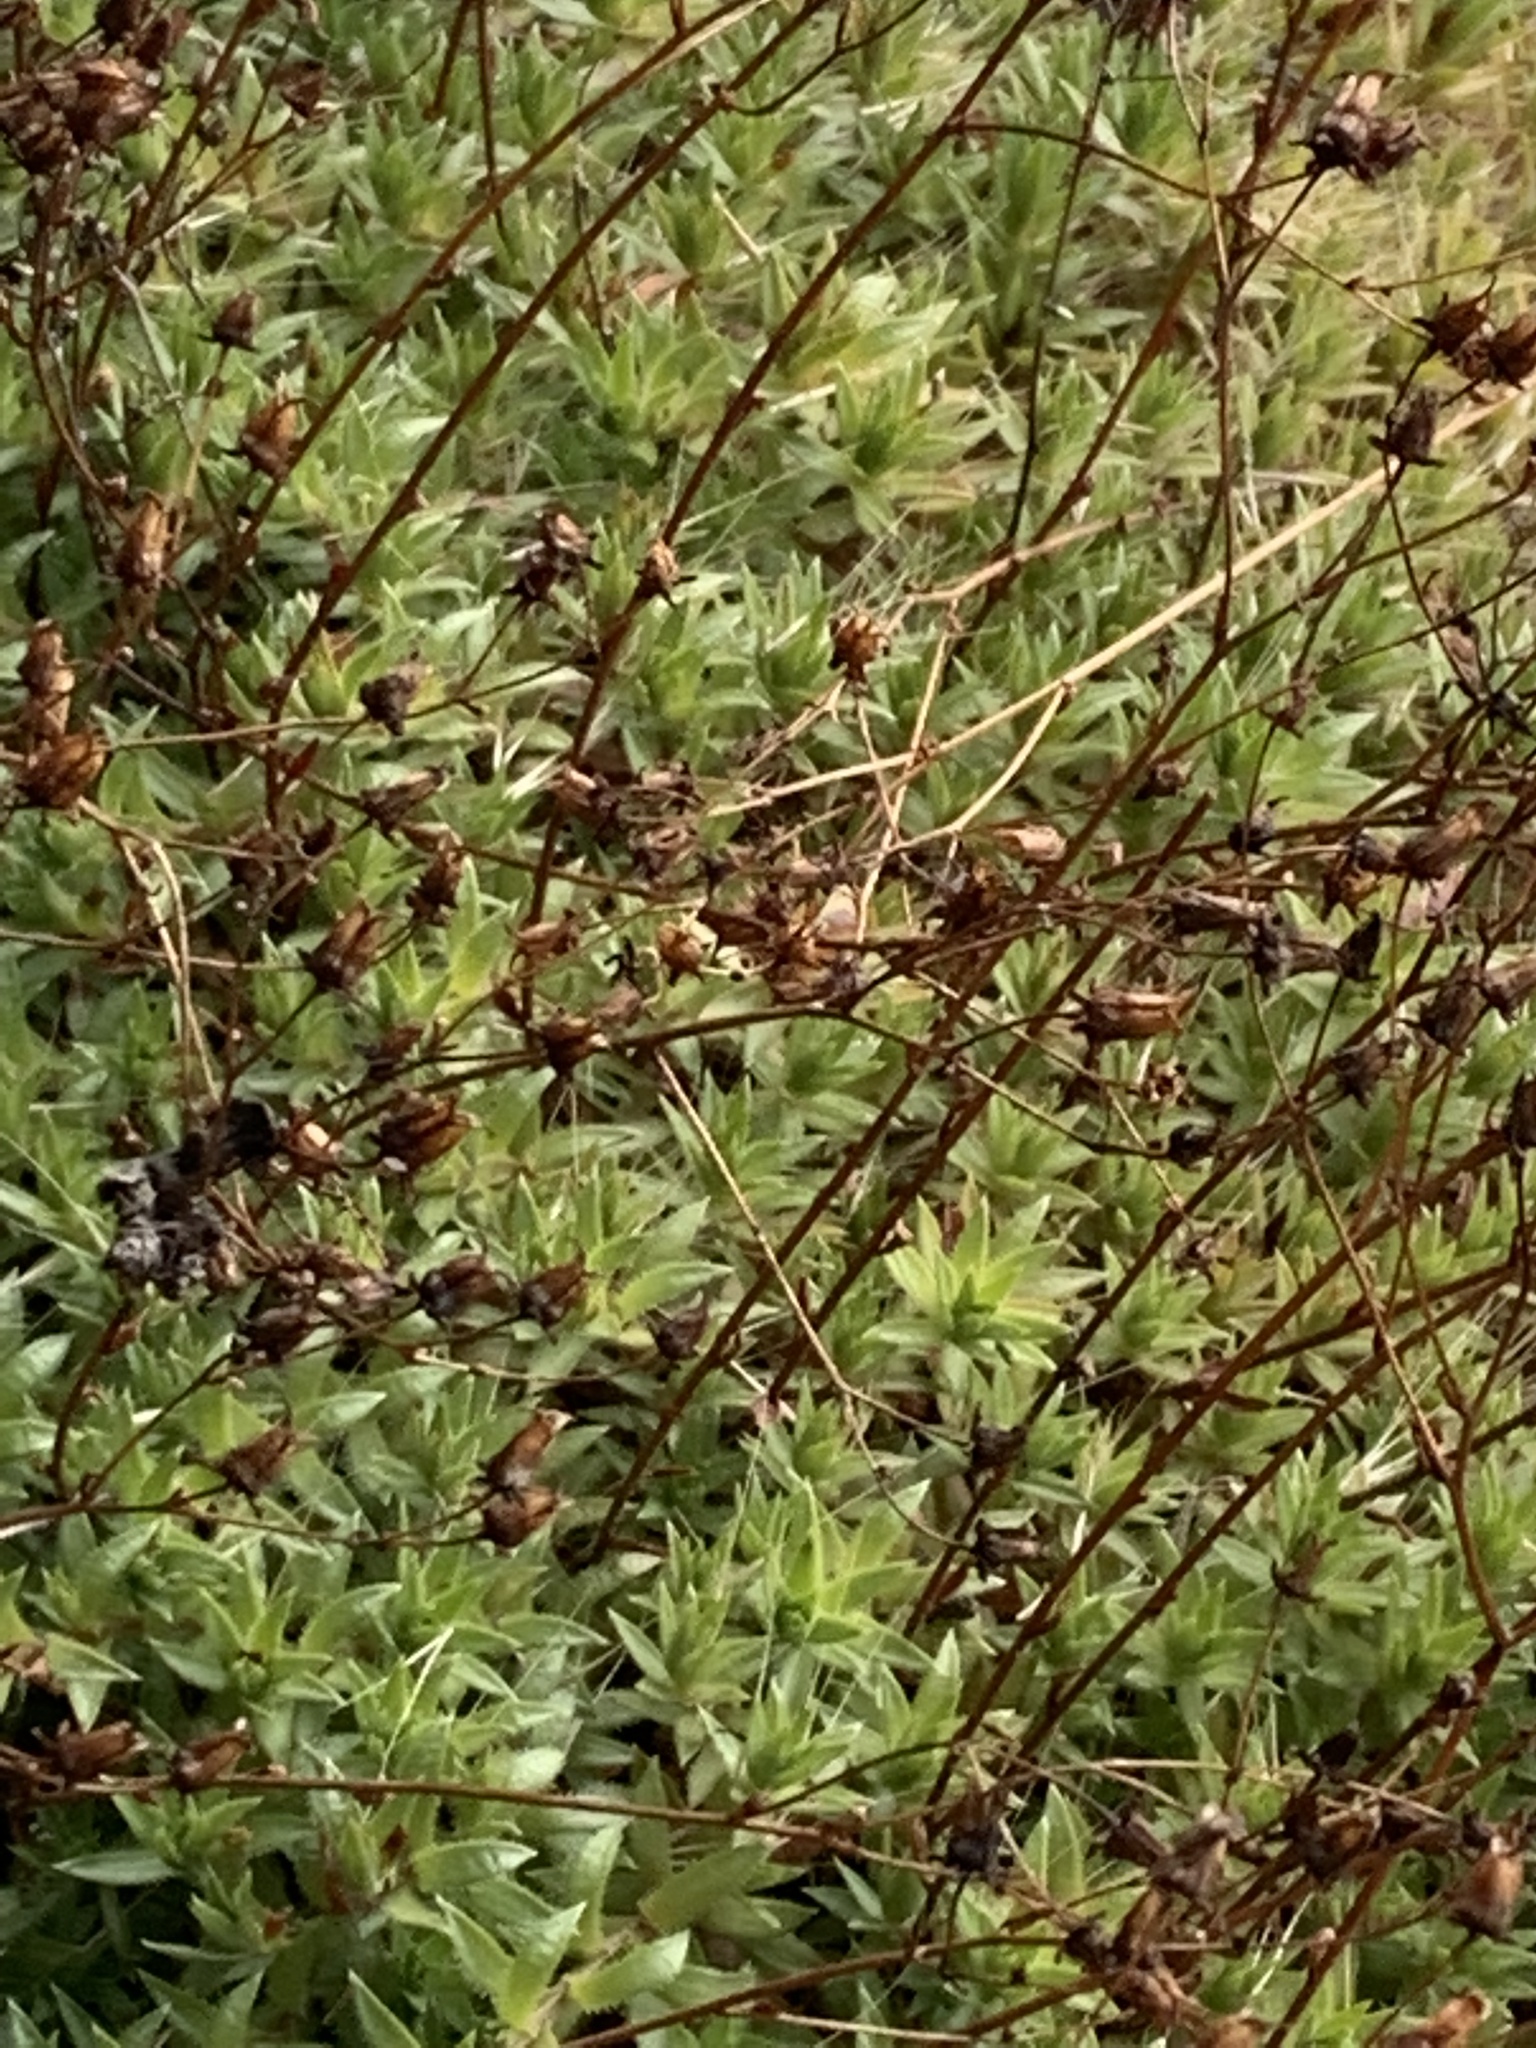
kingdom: Plantae
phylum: Tracheophyta
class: Magnoliopsida
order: Saxifragales
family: Saxifragaceae
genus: Saxifraga
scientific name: Saxifraga bronchialis
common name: Matted saxifrage
